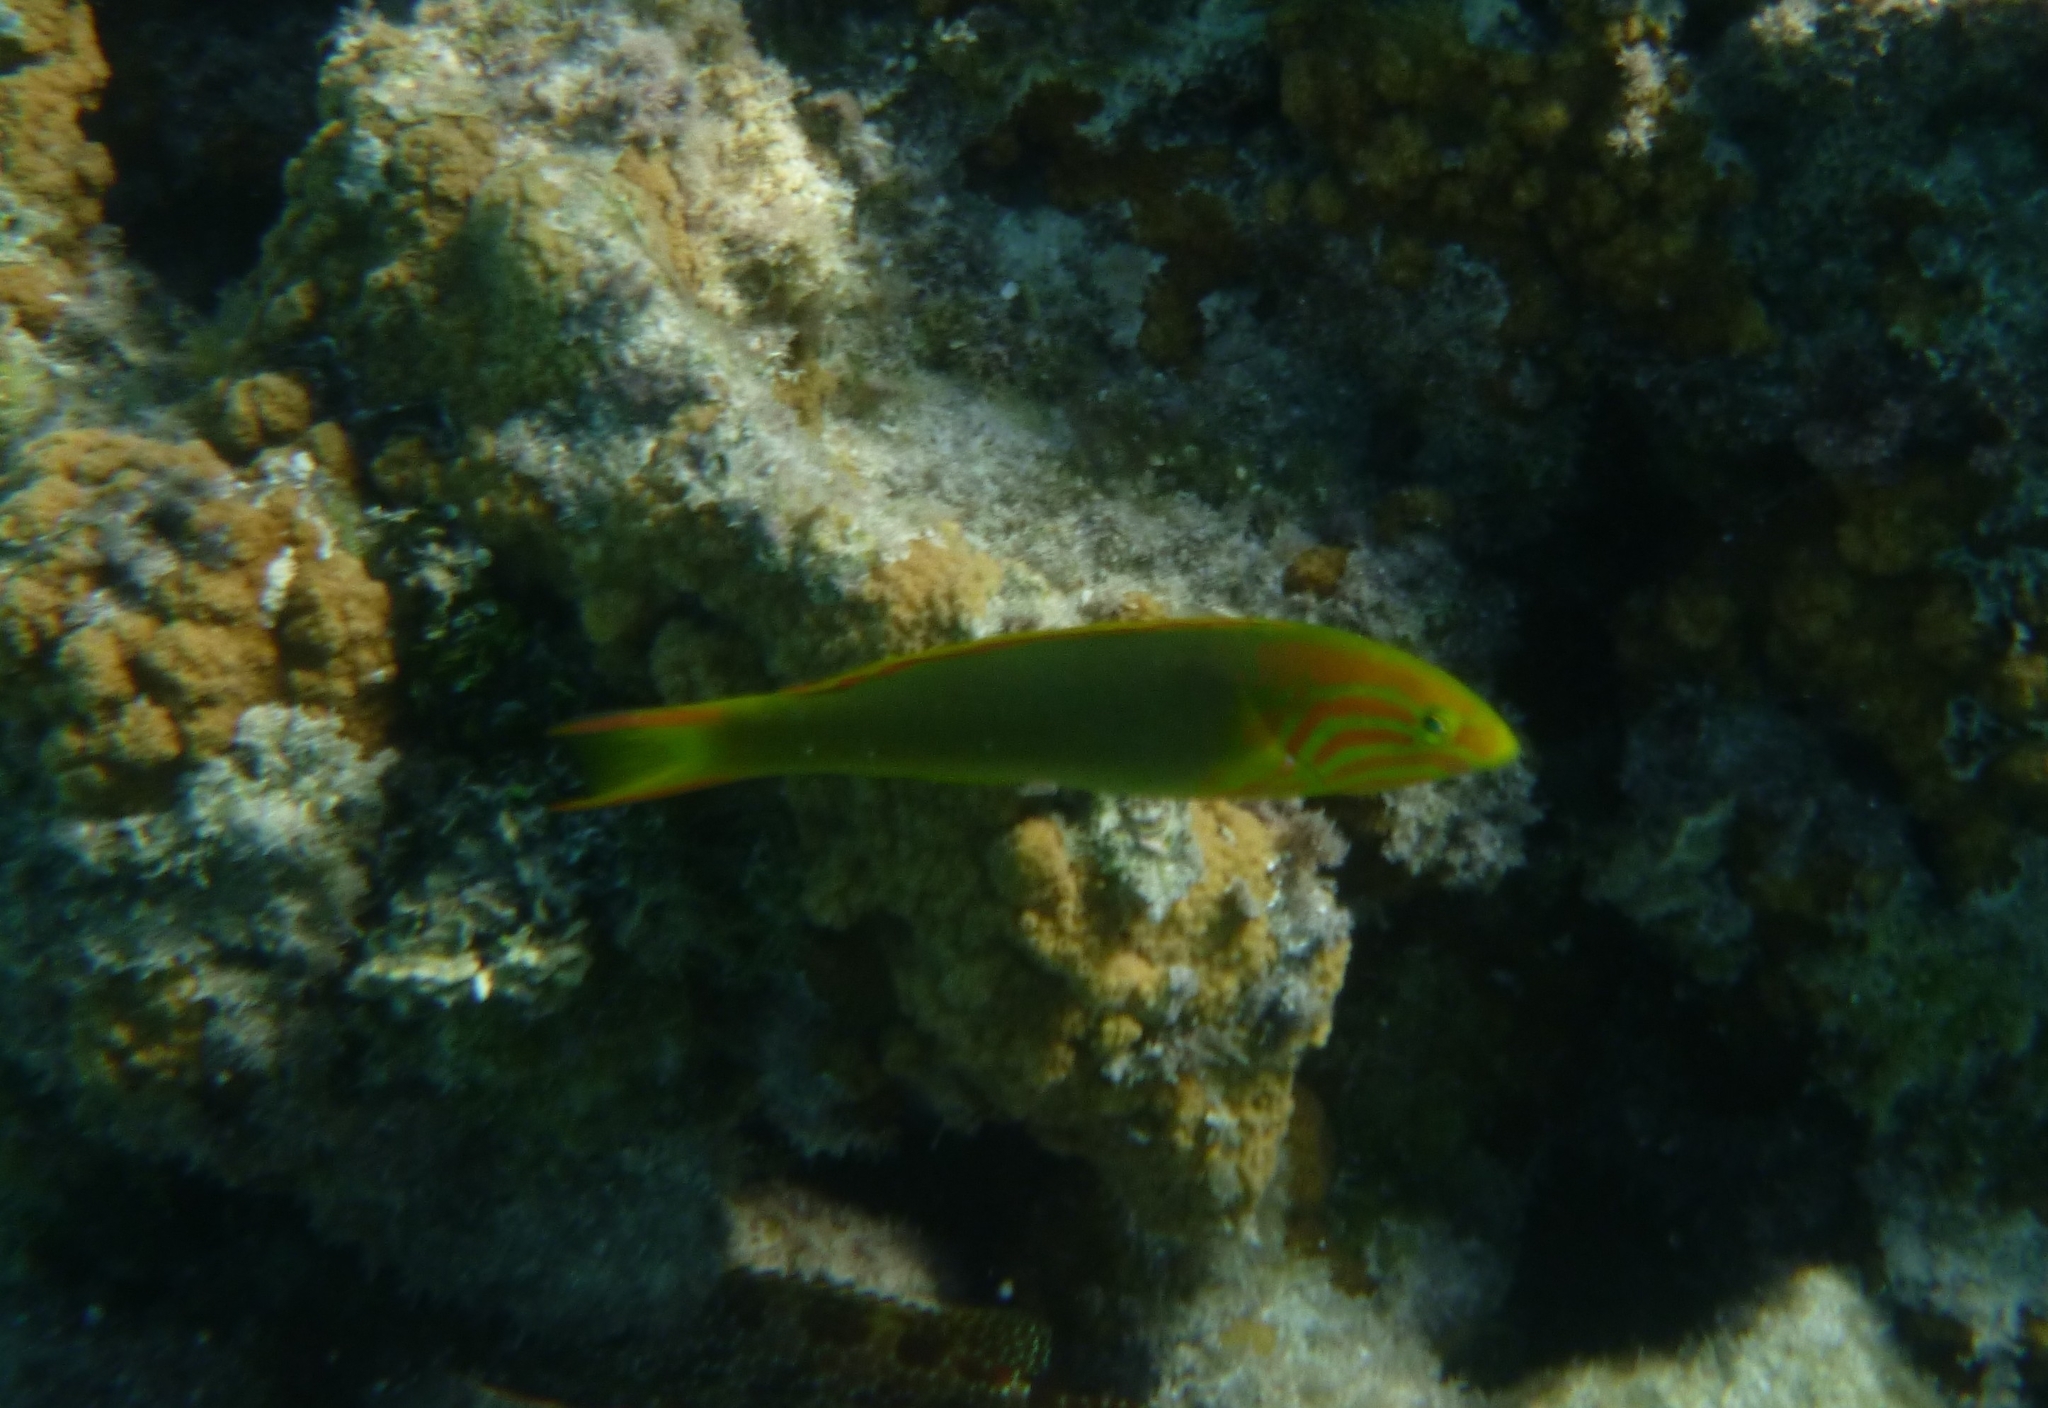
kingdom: Animalia
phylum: Chordata
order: Perciformes
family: Labridae
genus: Thalassoma
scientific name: Thalassoma lutescens
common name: Green moon wrasse
